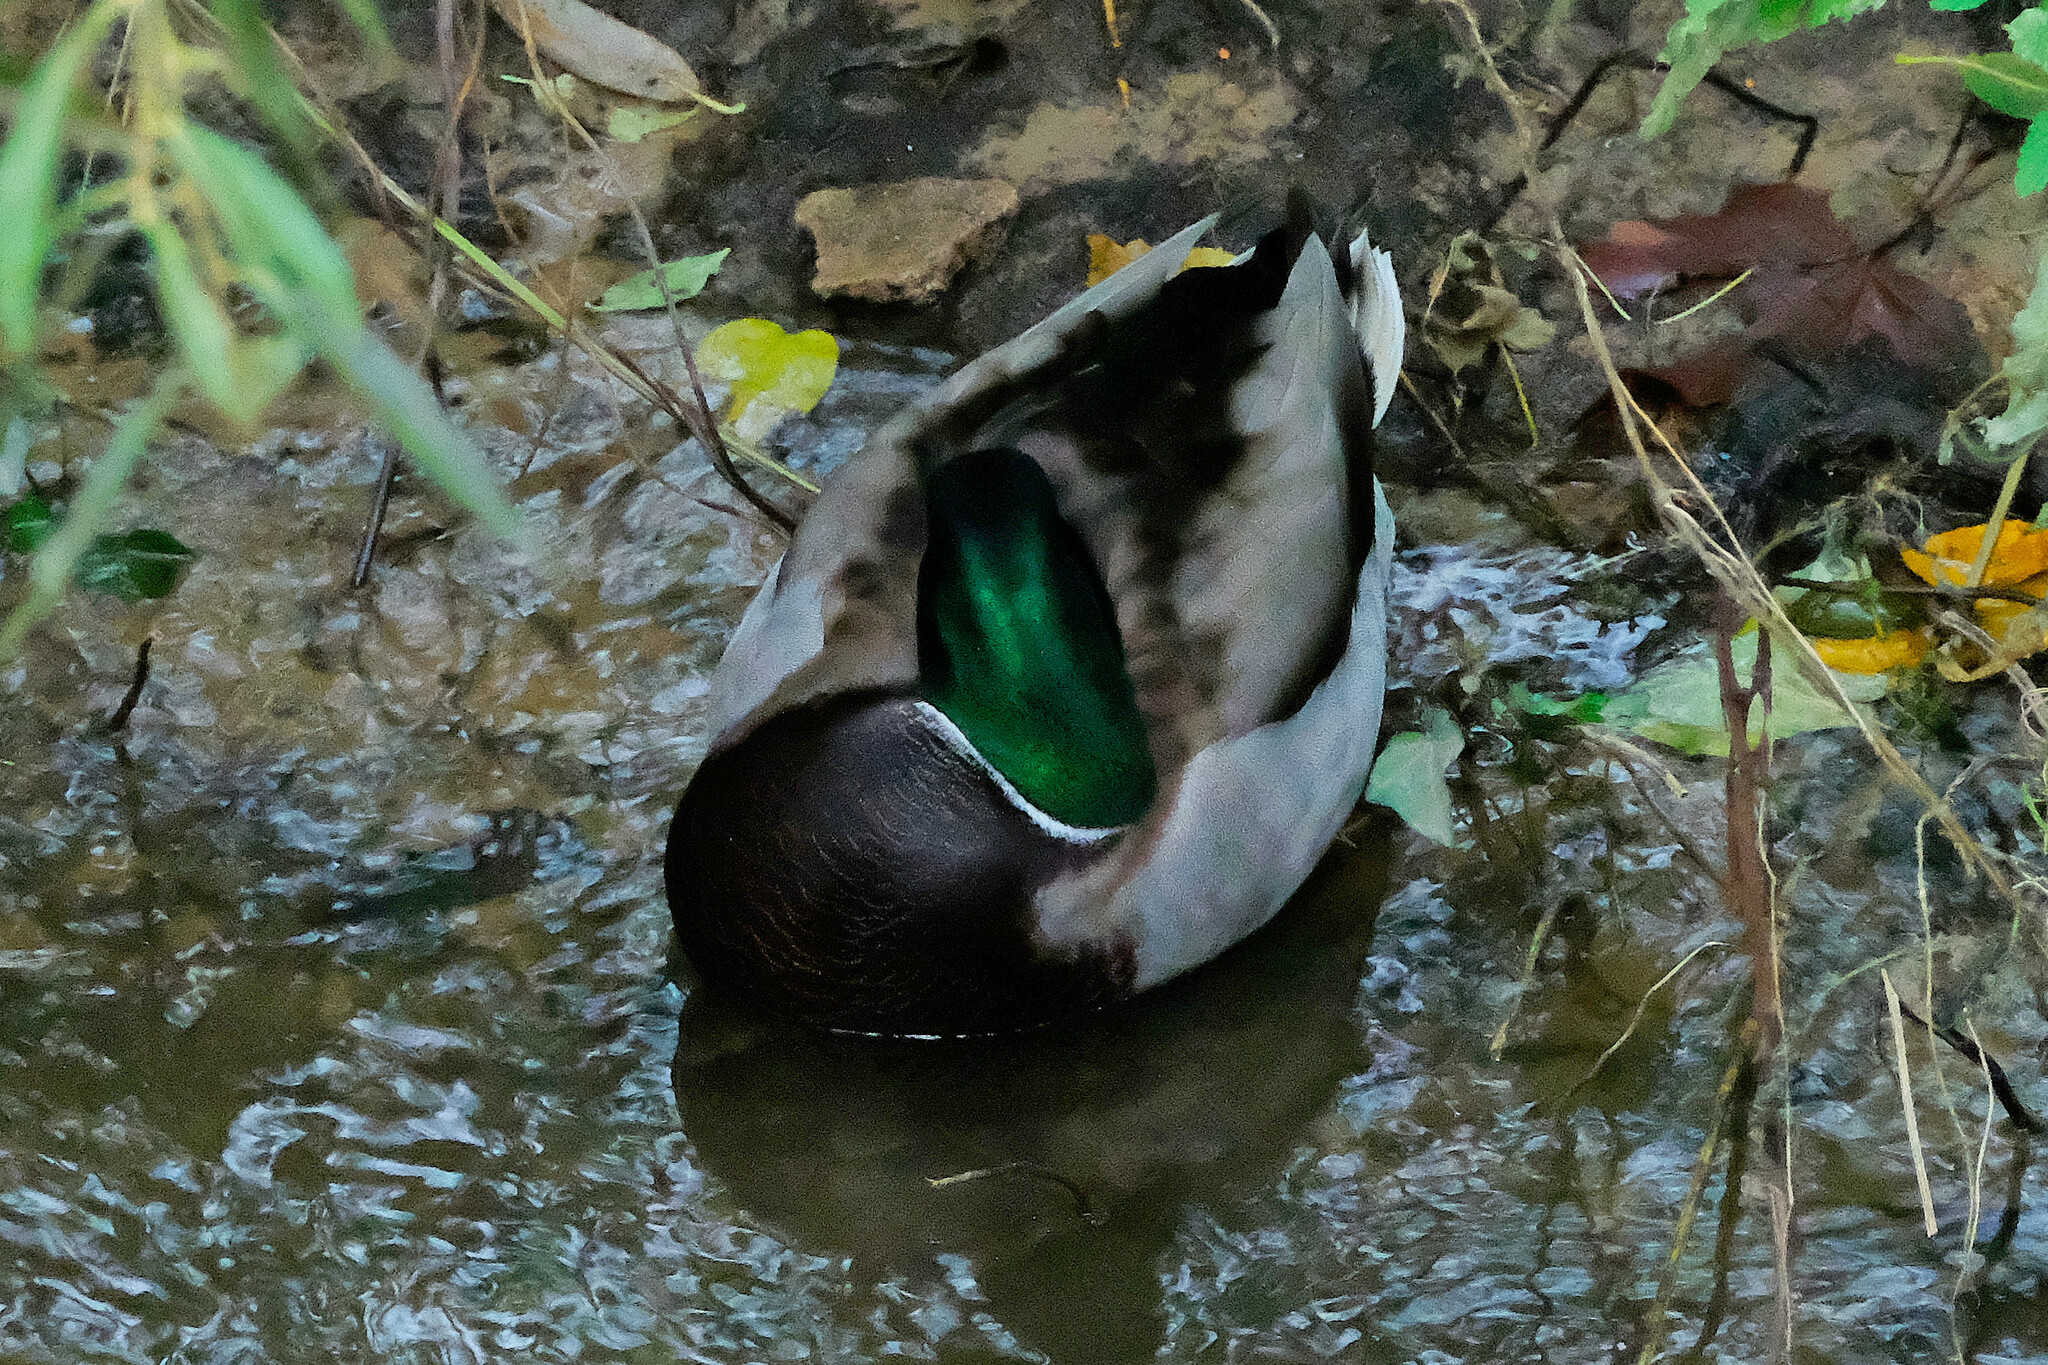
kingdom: Animalia
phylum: Chordata
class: Aves
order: Anseriformes
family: Anatidae
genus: Anas
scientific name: Anas platyrhynchos
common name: Mallard
